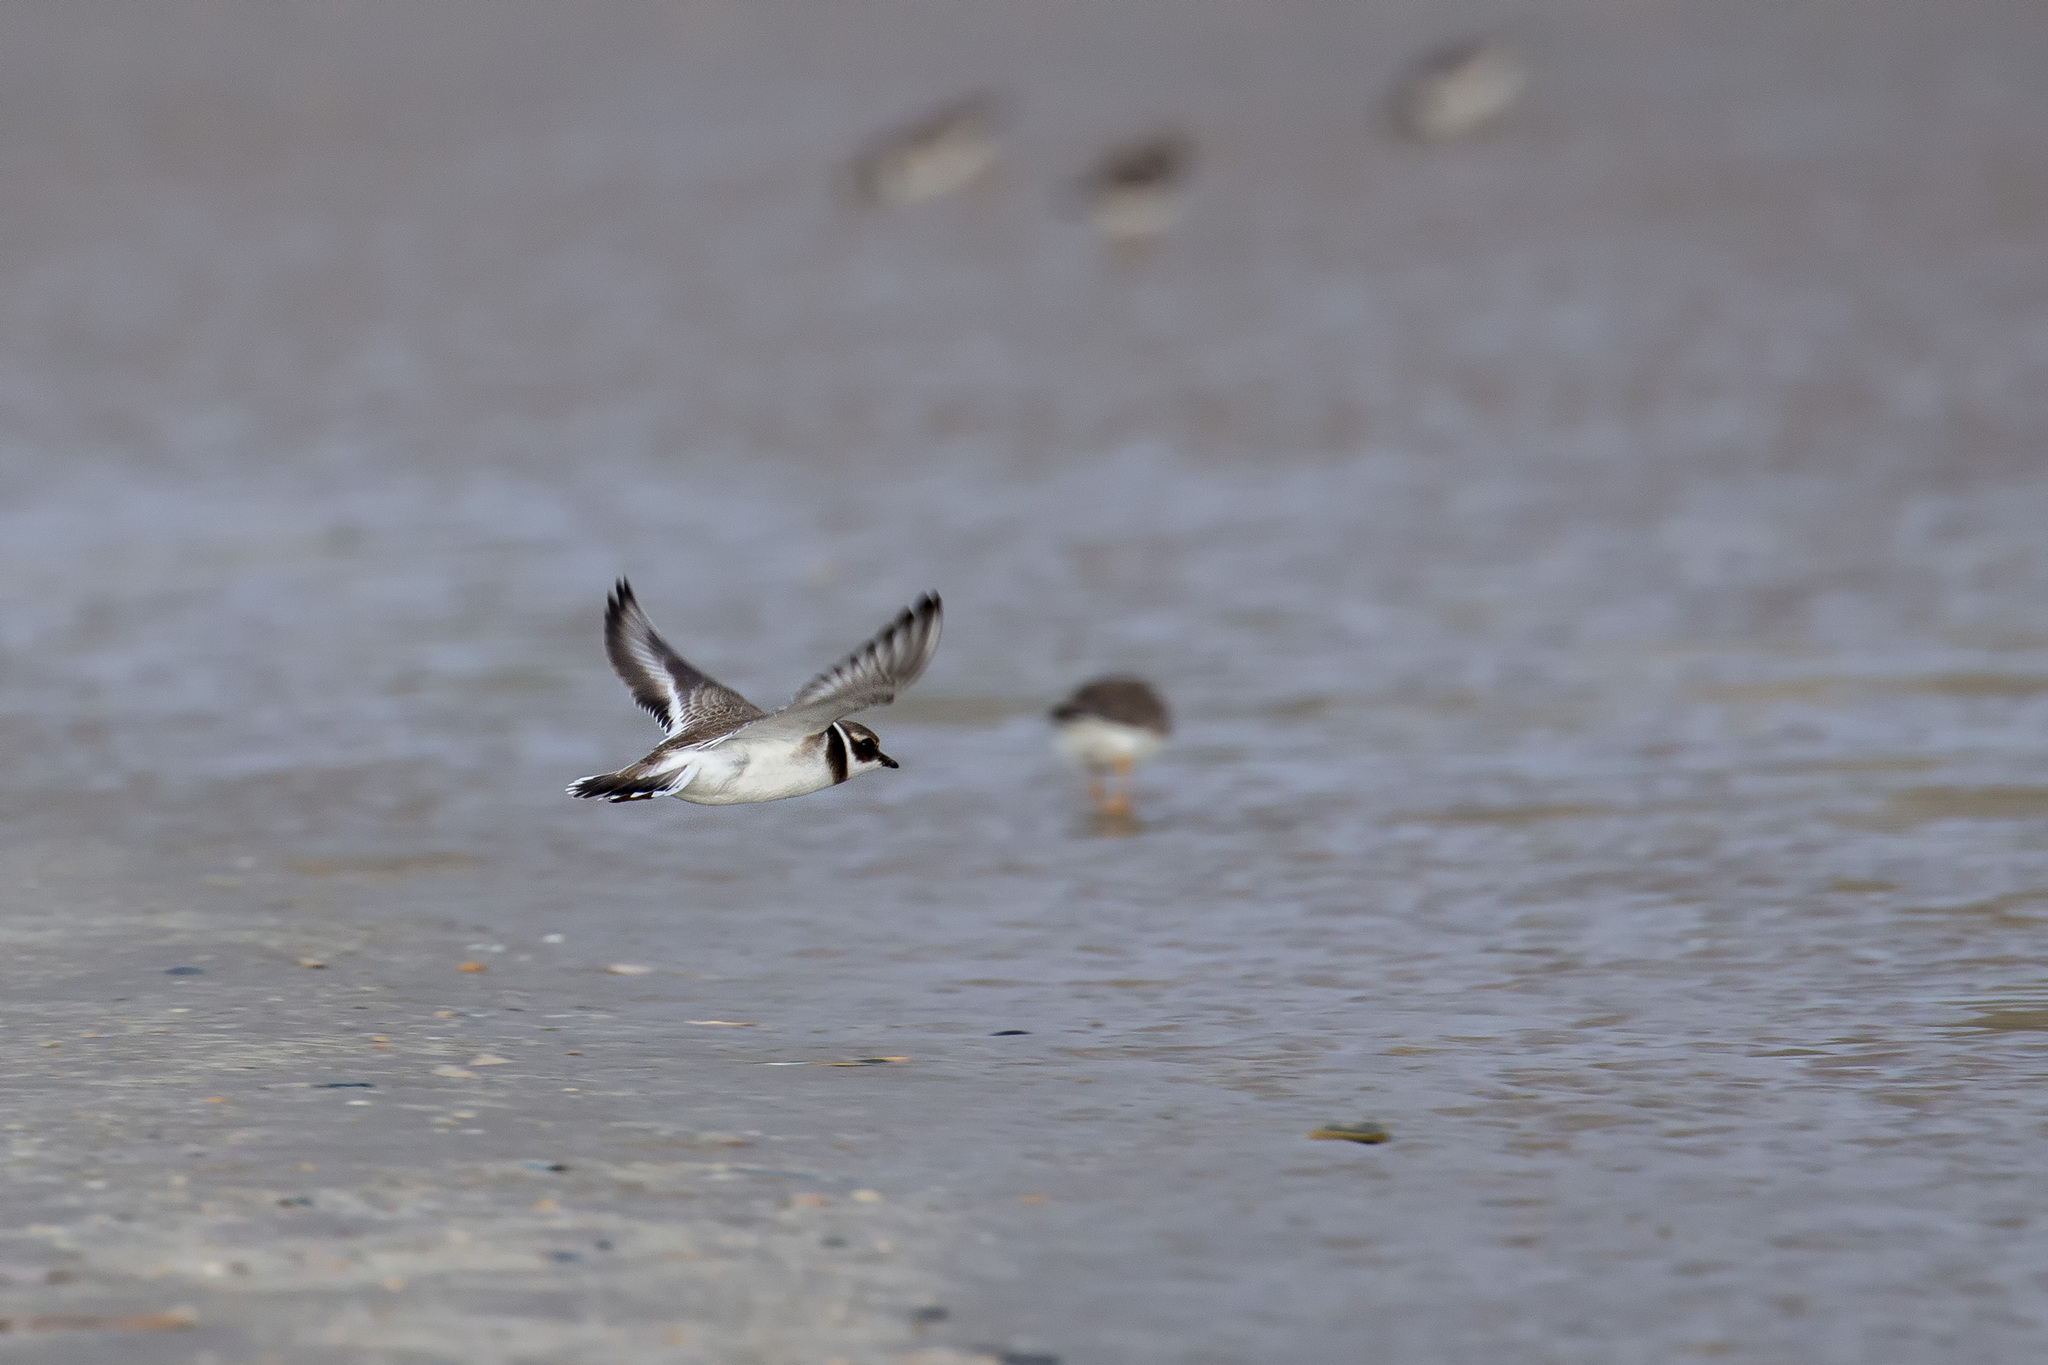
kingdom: Animalia
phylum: Chordata
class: Aves
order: Charadriiformes
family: Charadriidae
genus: Charadrius
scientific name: Charadrius hiaticula
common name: Common ringed plover
